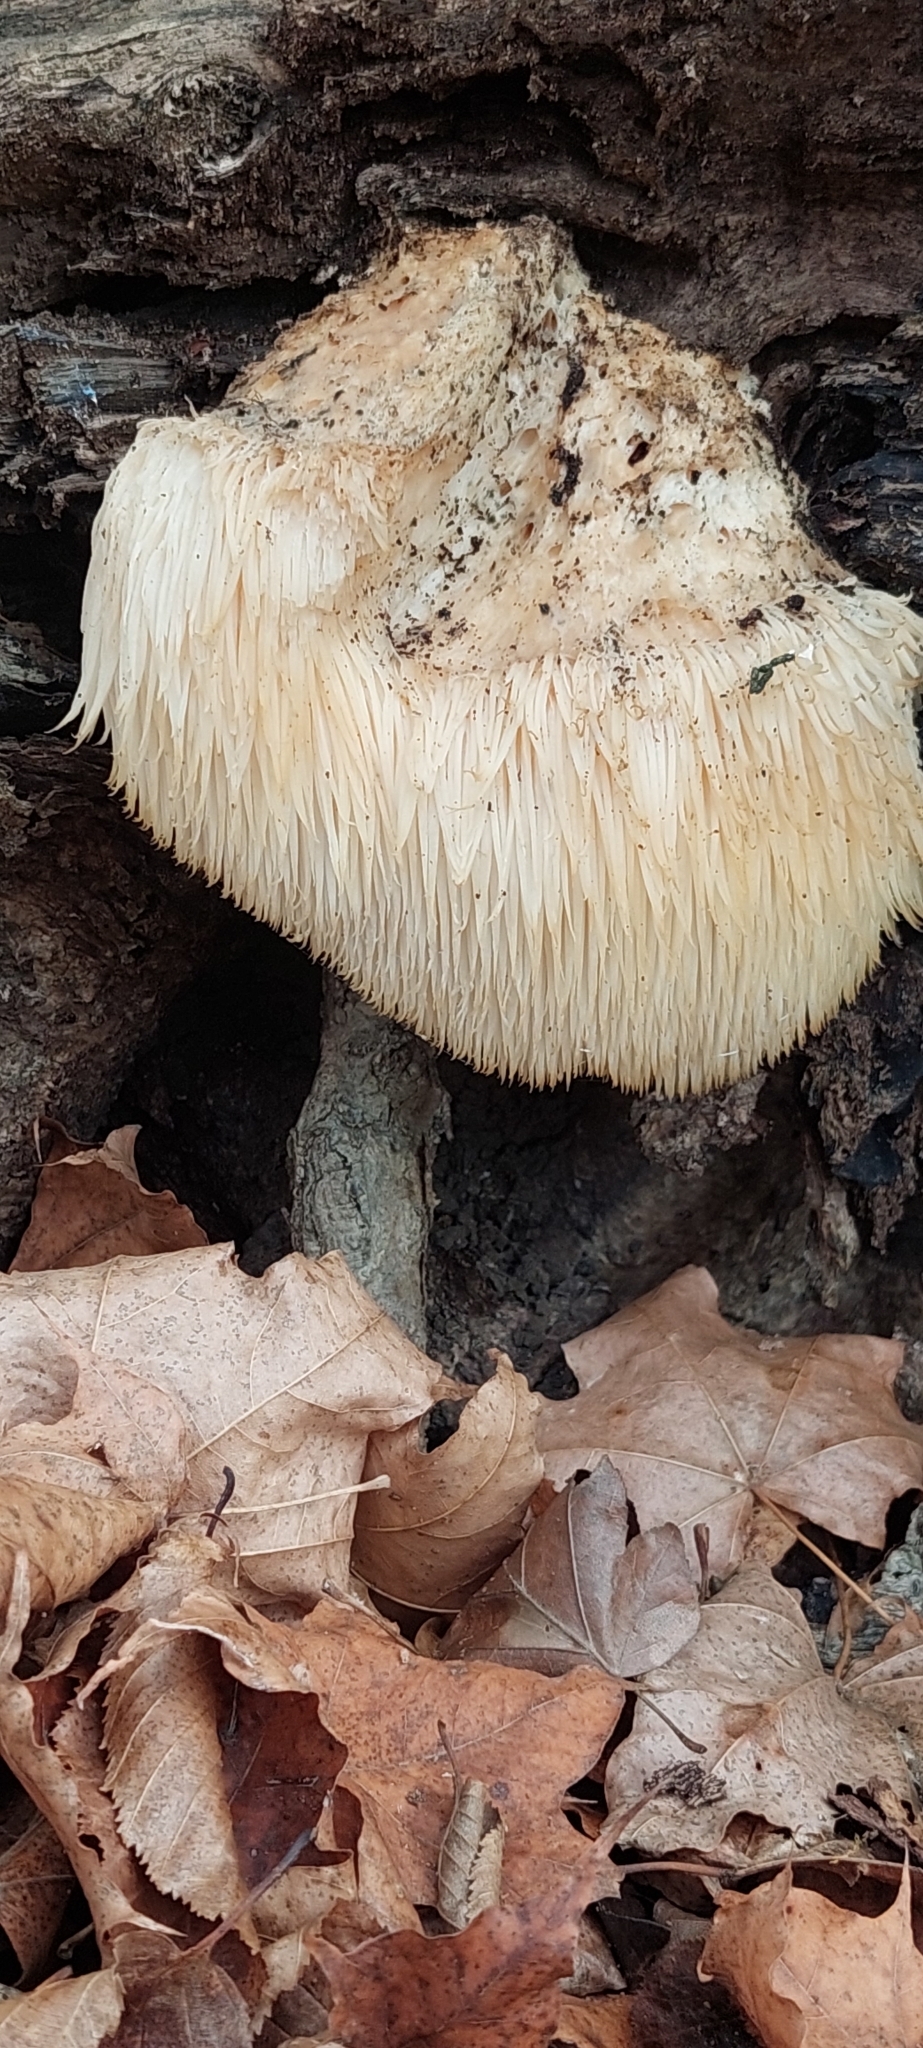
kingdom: Fungi
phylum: Basidiomycota
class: Agaricomycetes
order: Russulales
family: Hericiaceae
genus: Hericium
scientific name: Hericium erinaceus
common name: Bearded tooth
